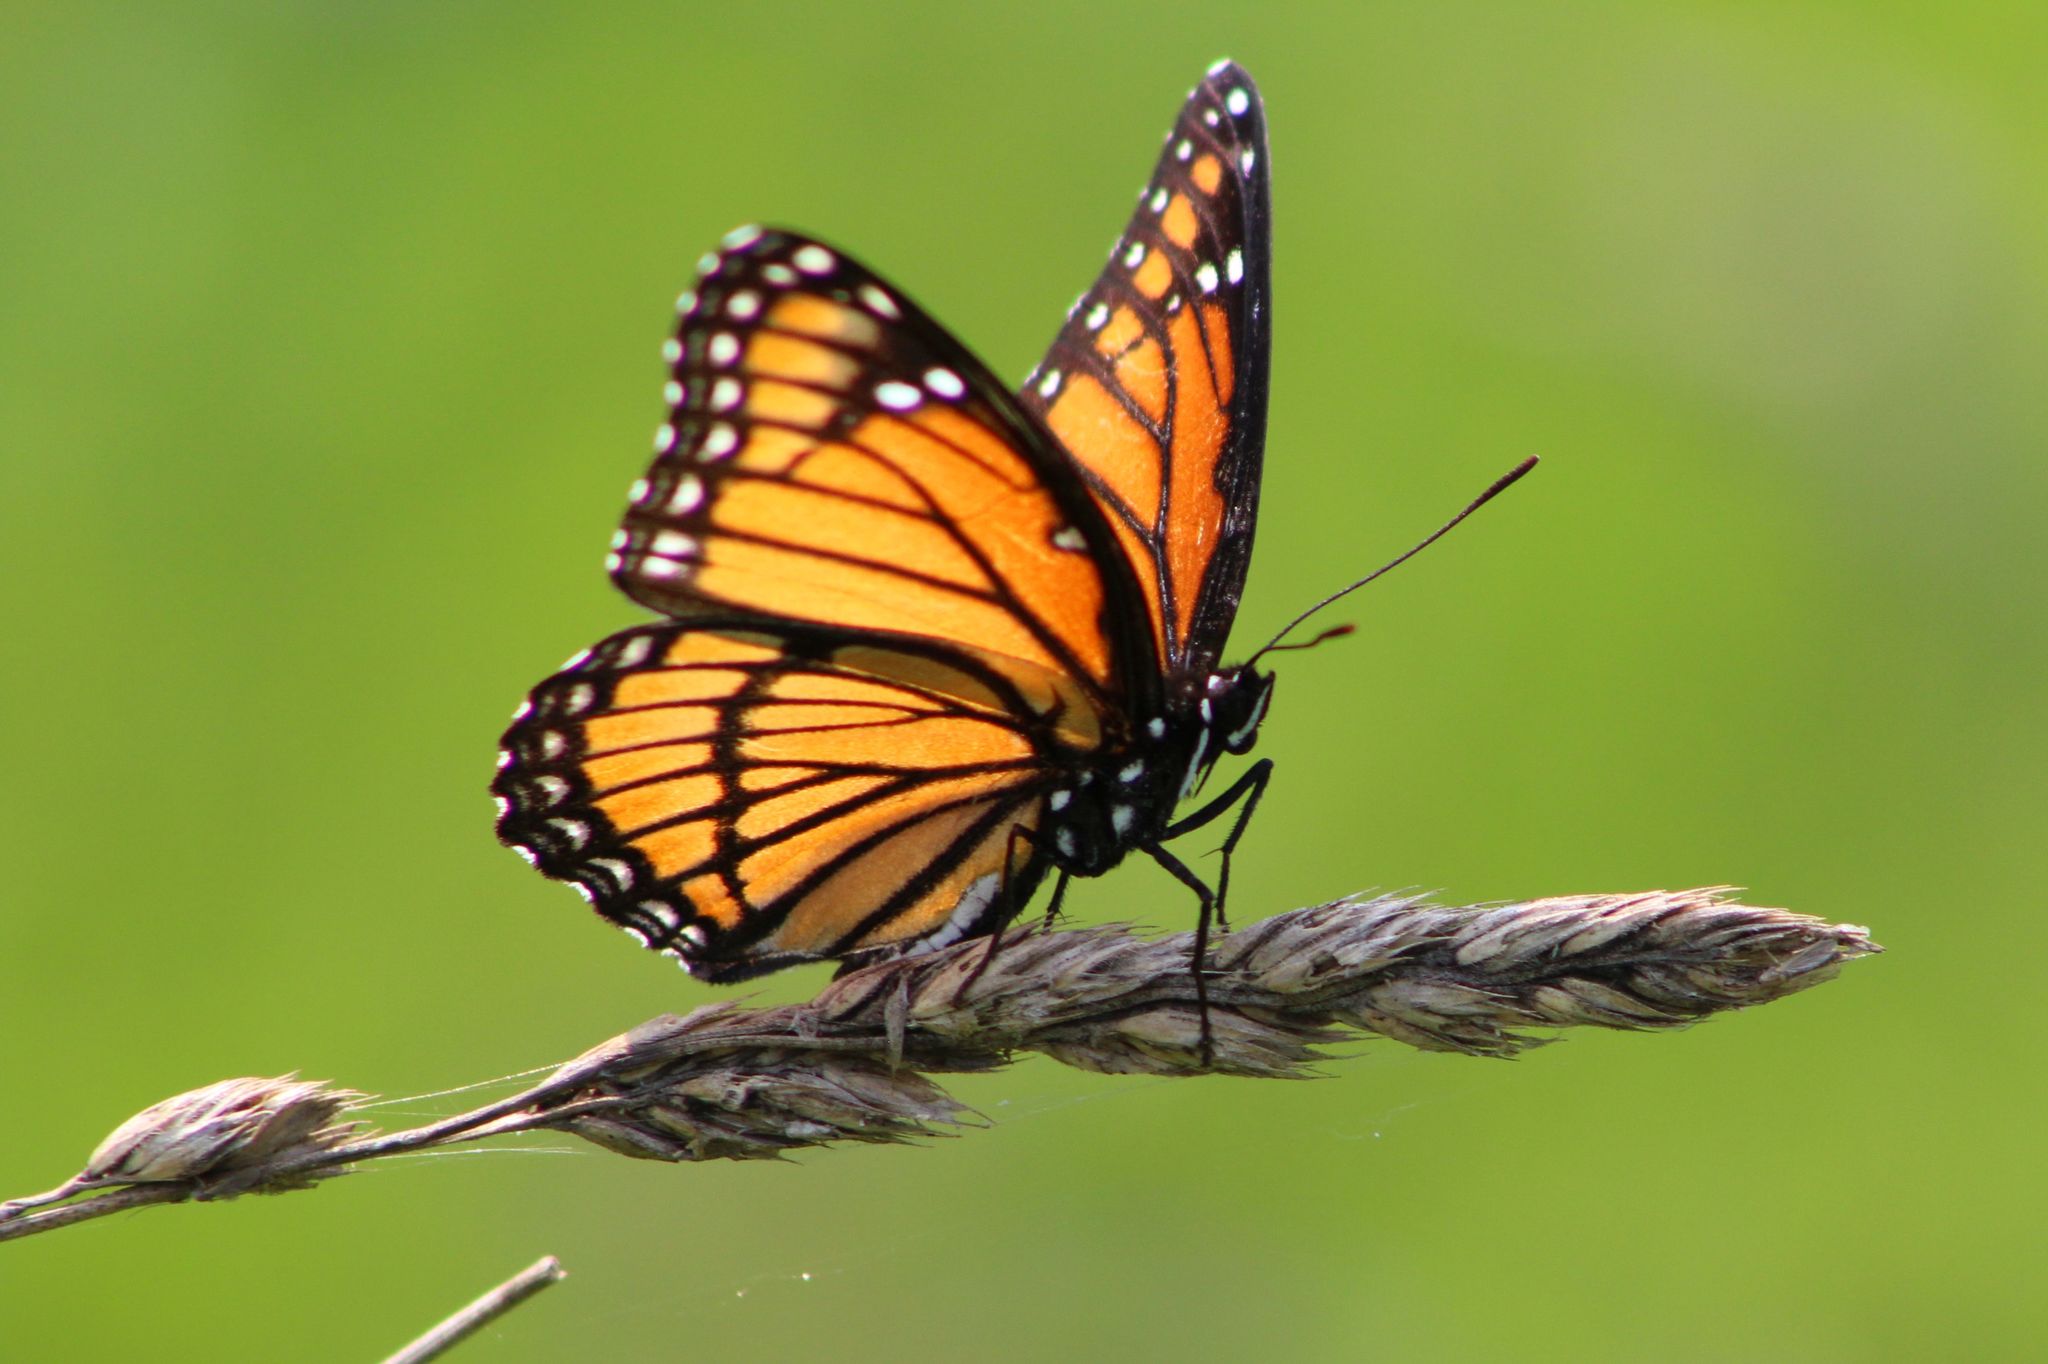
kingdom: Animalia
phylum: Arthropoda
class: Insecta
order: Lepidoptera
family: Nymphalidae
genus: Limenitis
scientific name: Limenitis archippus
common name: Viceroy
